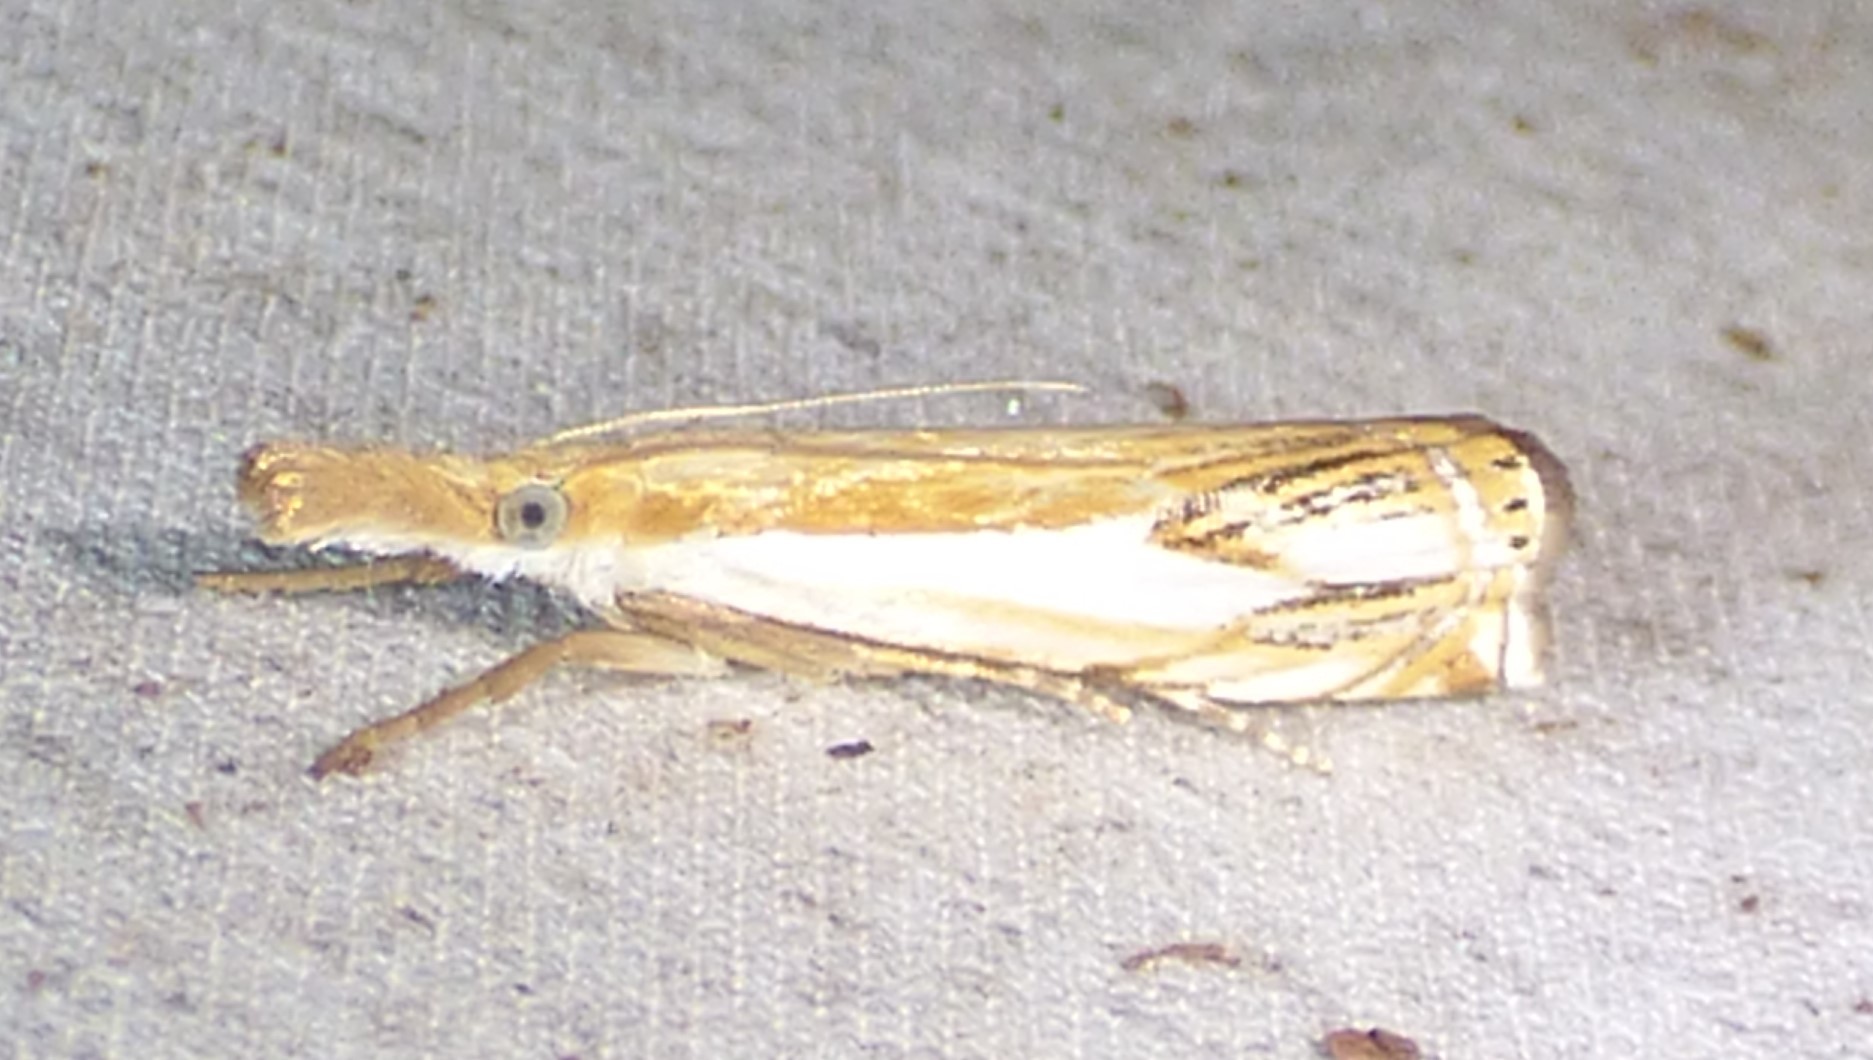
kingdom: Animalia
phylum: Arthropoda
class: Insecta
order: Lepidoptera
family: Crambidae
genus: Crambus
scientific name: Crambus agitatellus
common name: Double-banded grass-veneer
